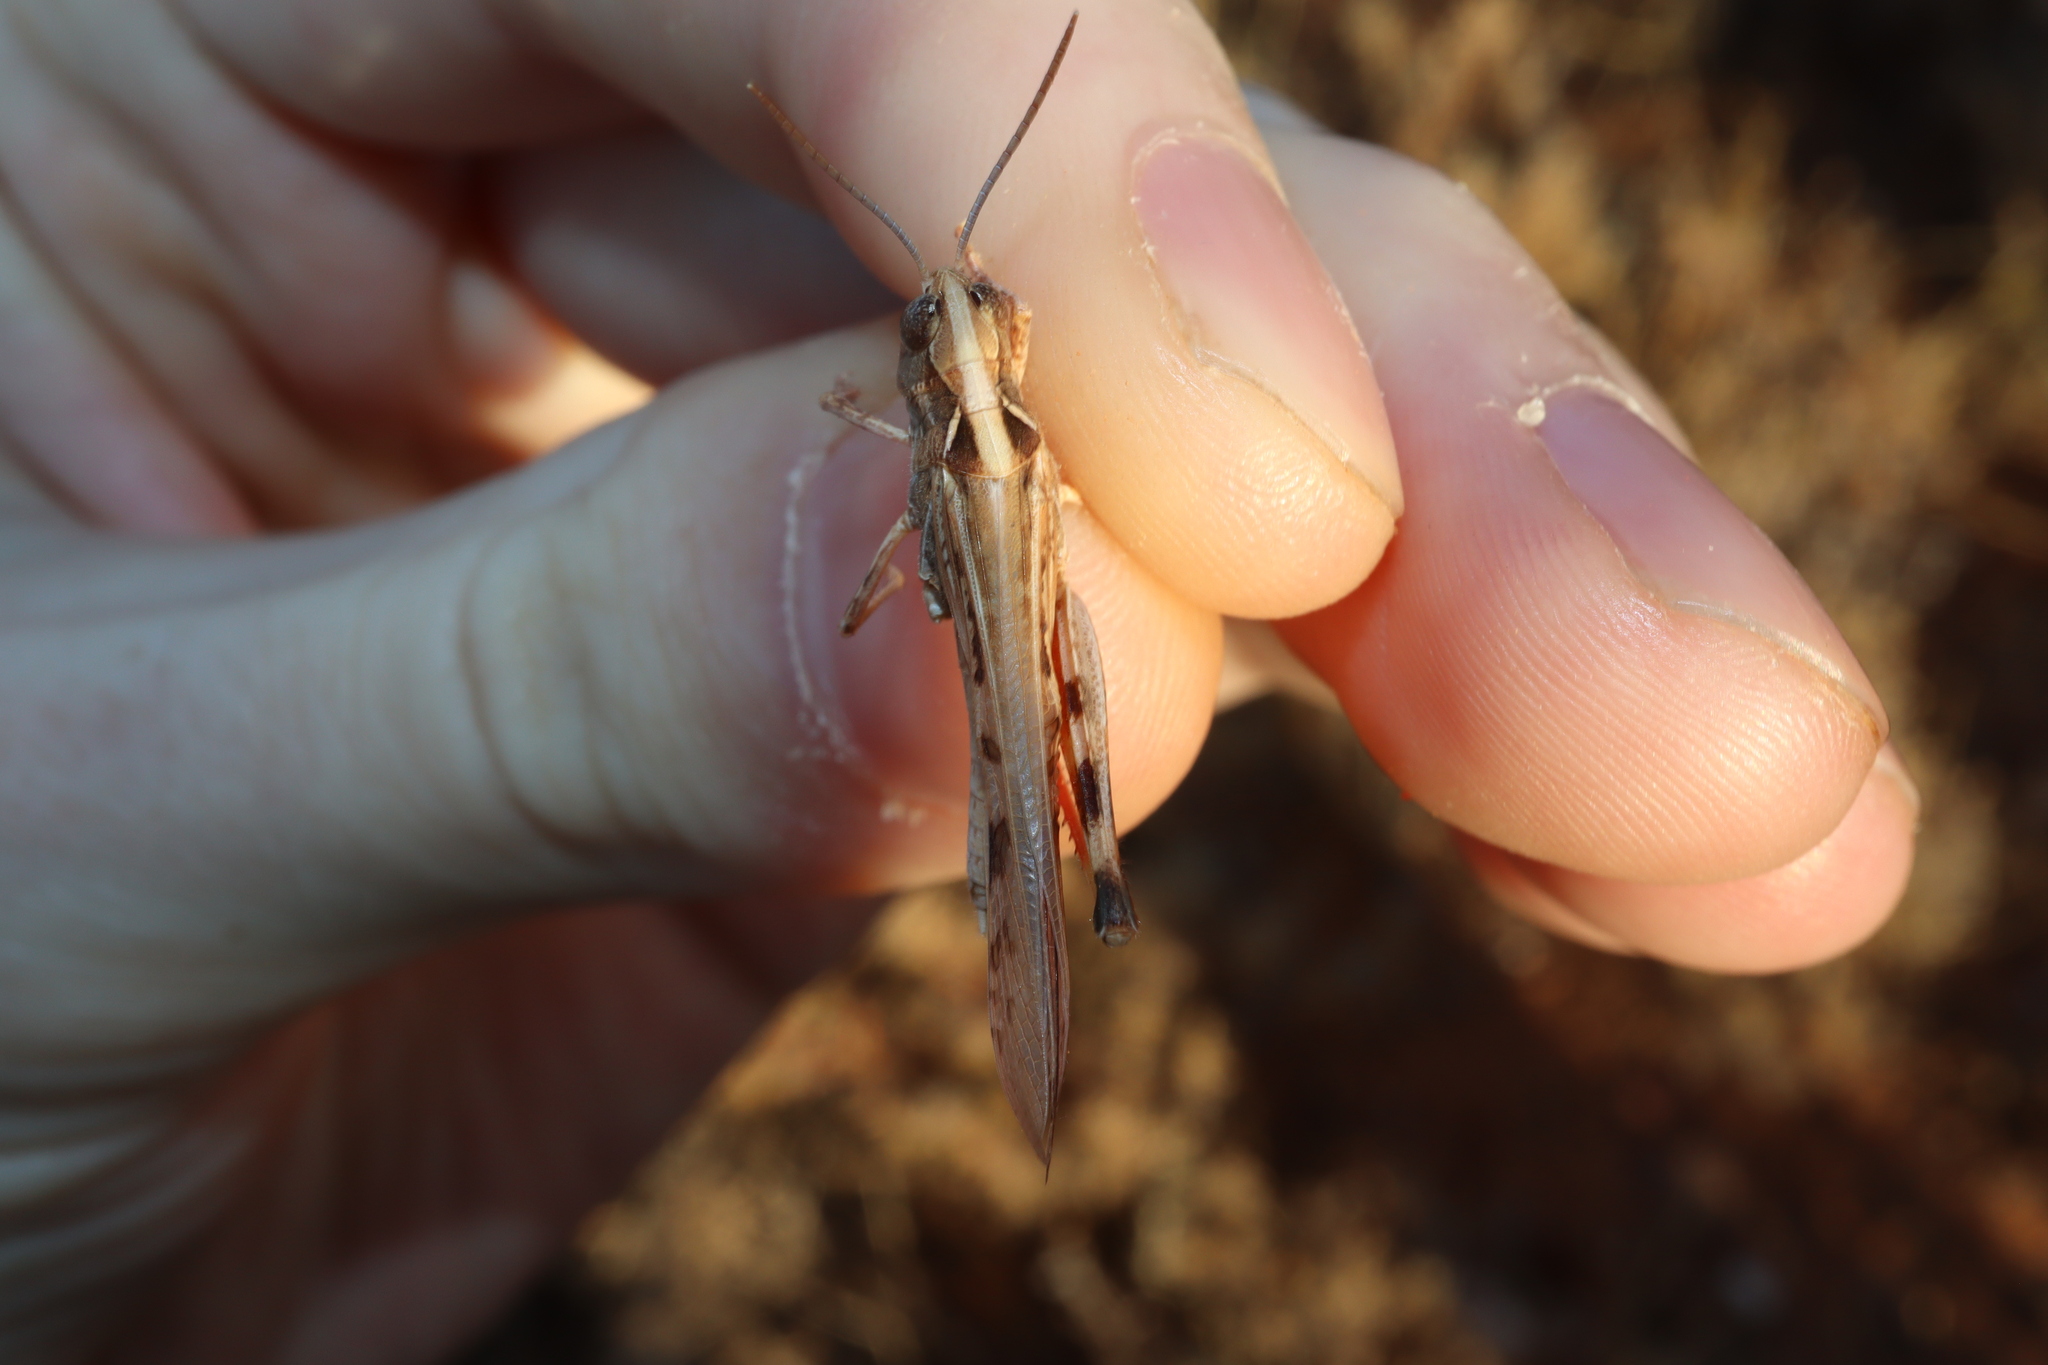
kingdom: Animalia
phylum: Arthropoda
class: Insecta
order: Orthoptera
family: Acrididae
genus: Chortoicetes
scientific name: Chortoicetes terminifera
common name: Australian plague locust
